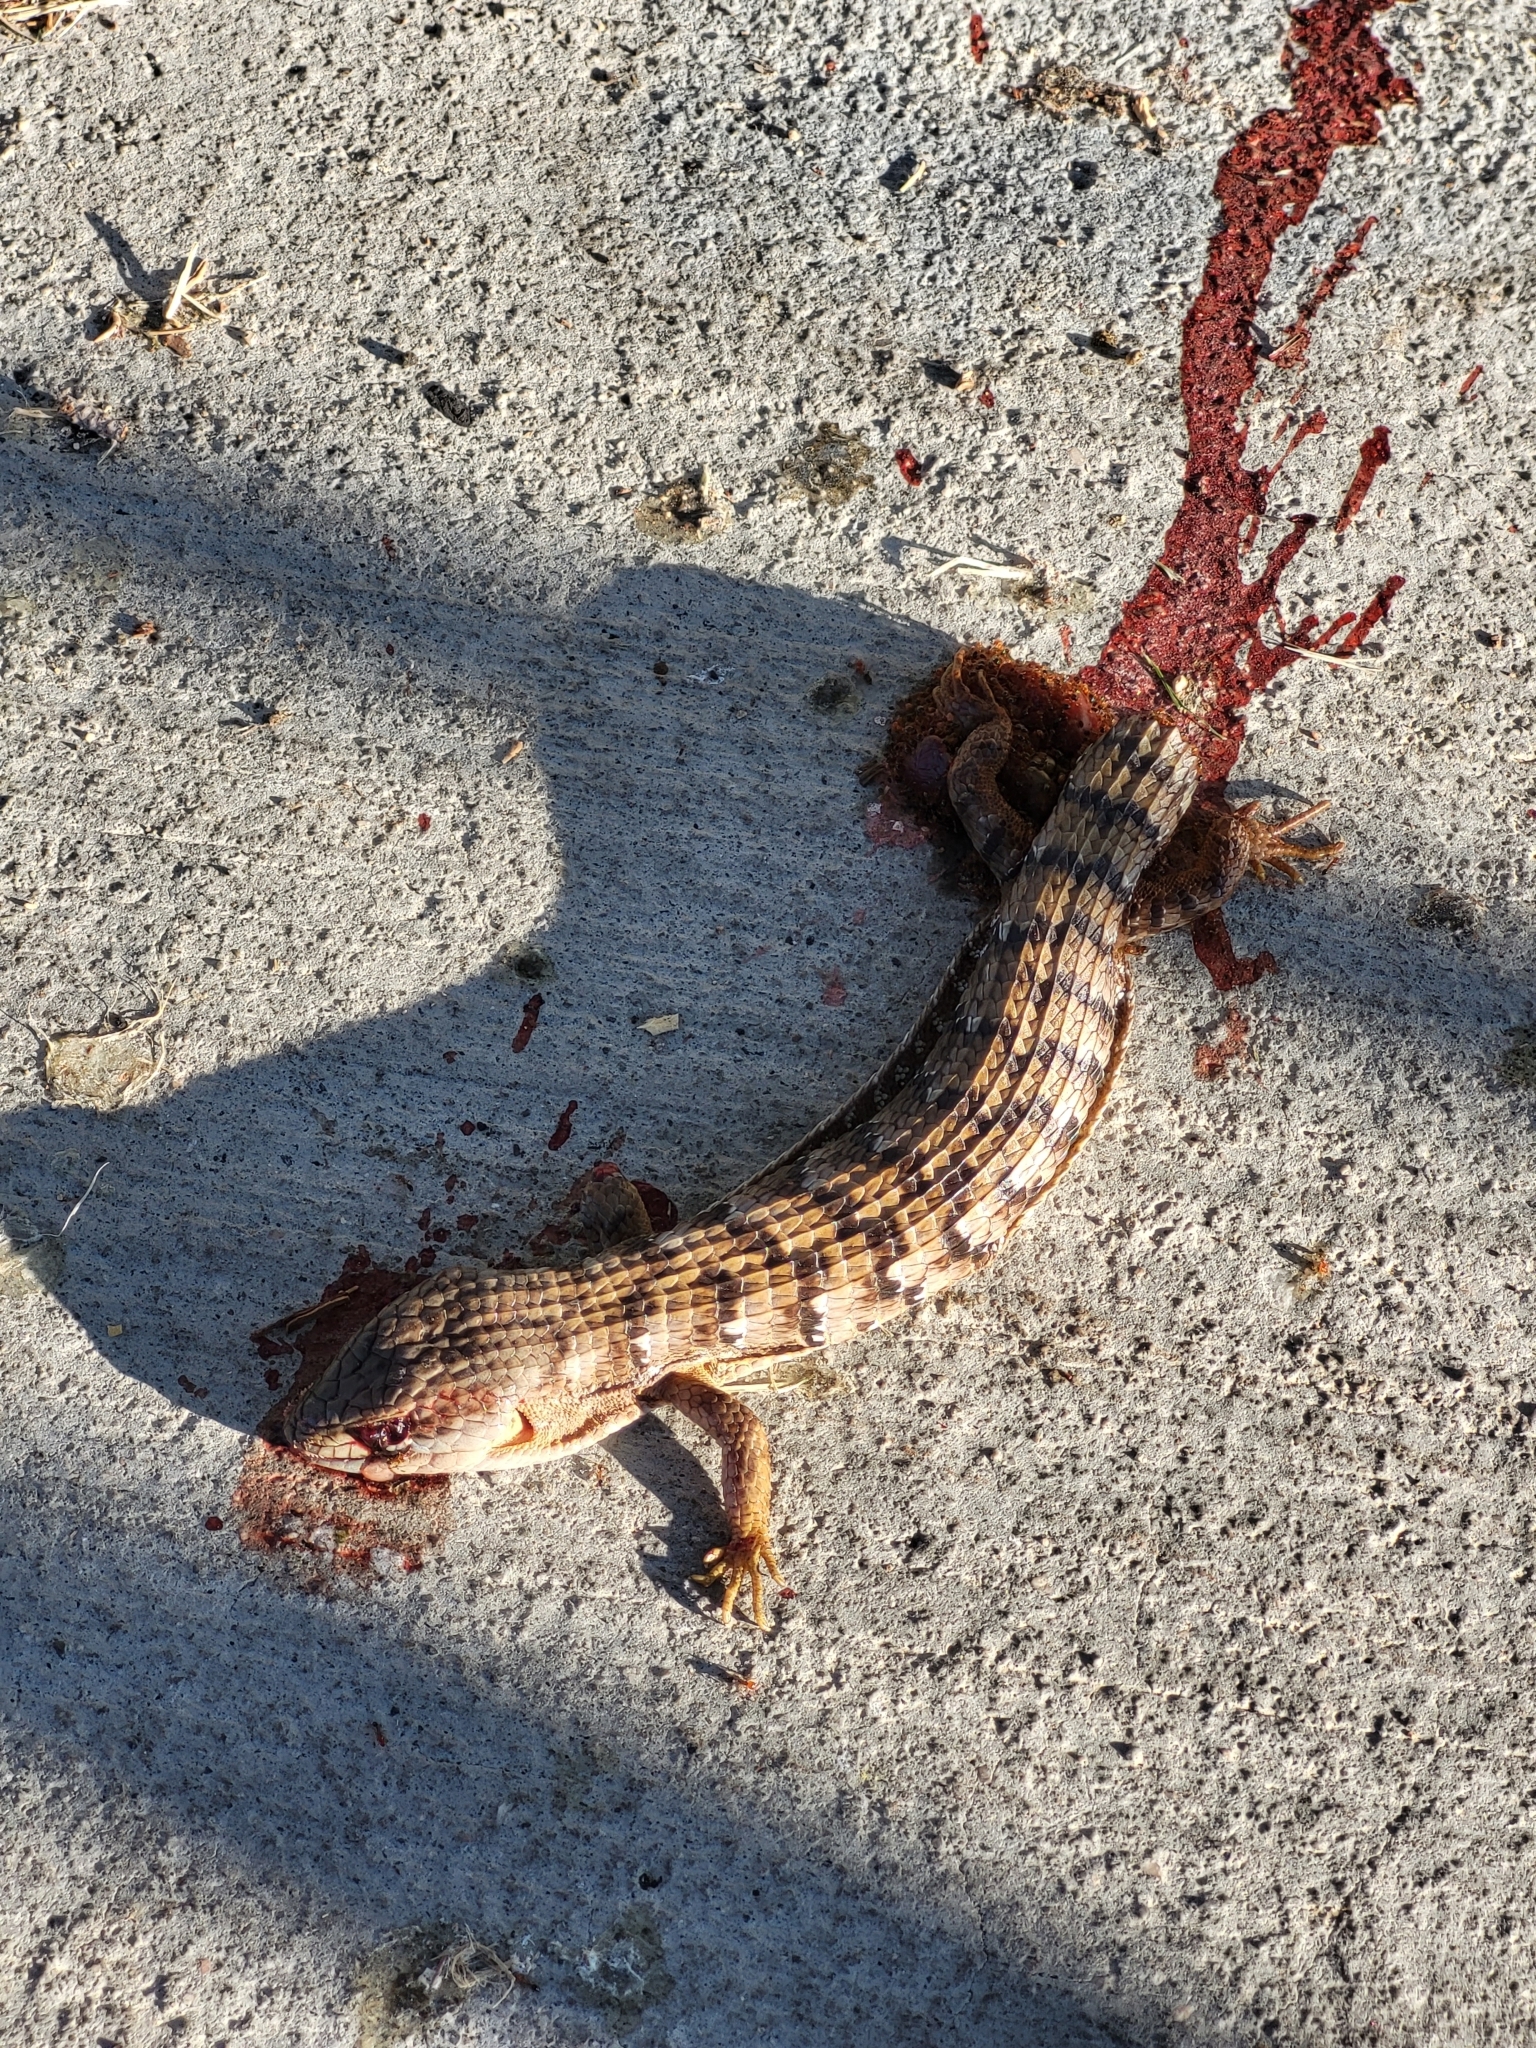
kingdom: Animalia
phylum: Chordata
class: Squamata
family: Anguidae
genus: Elgaria
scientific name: Elgaria multicarinata
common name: Southern alligator lizard
